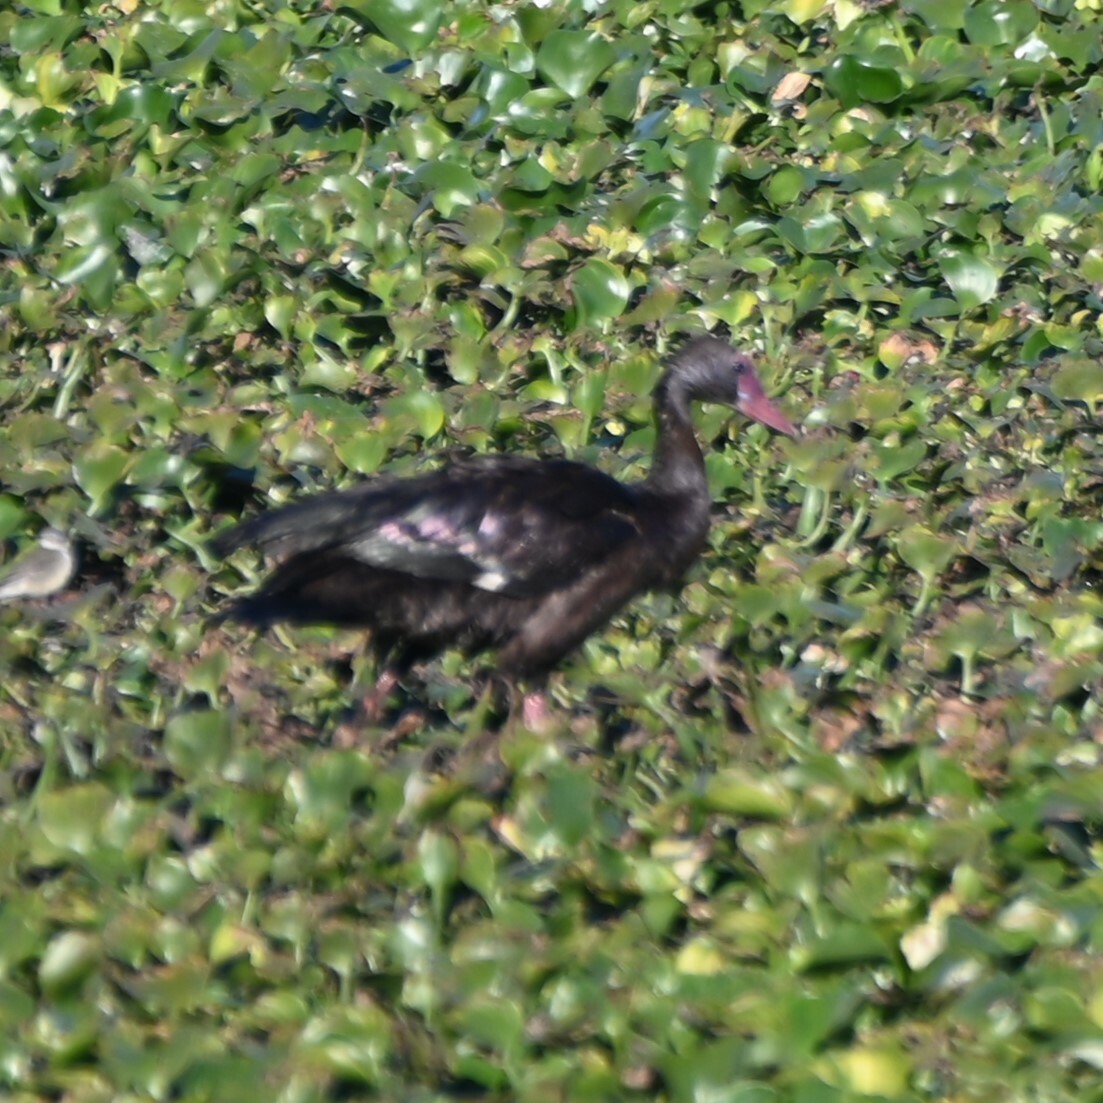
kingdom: Animalia
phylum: Chordata
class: Aves
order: Anseriformes
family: Anatidae
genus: Plectropterus
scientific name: Plectropterus gambensis
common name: Spur-winged goose
